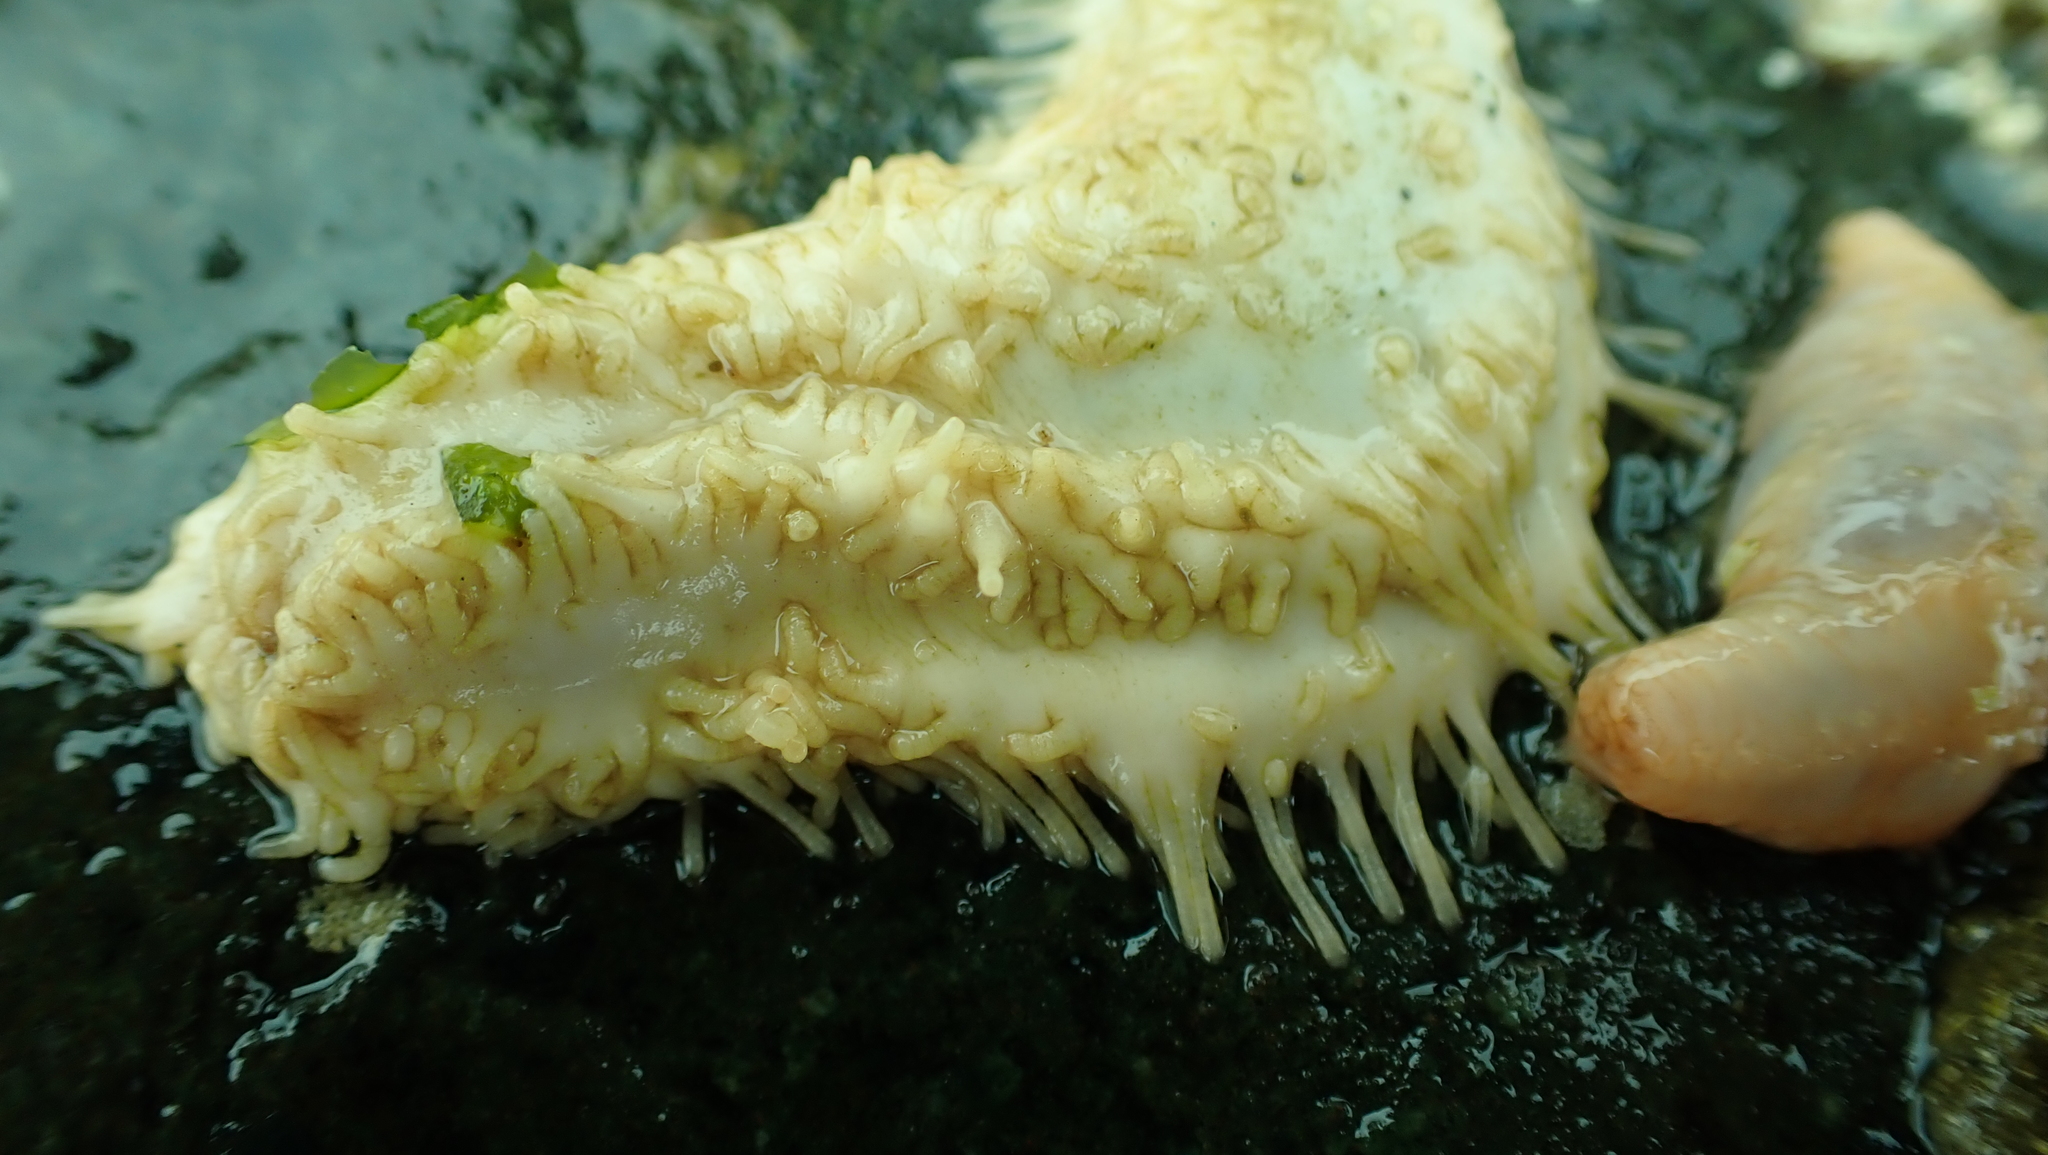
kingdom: Animalia
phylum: Echinodermata
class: Holothuroidea
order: Dendrochirotida
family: Sclerodactylidae
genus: Eupentacta
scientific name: Eupentacta quinquesemita
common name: Pentamerous sea cucumber
